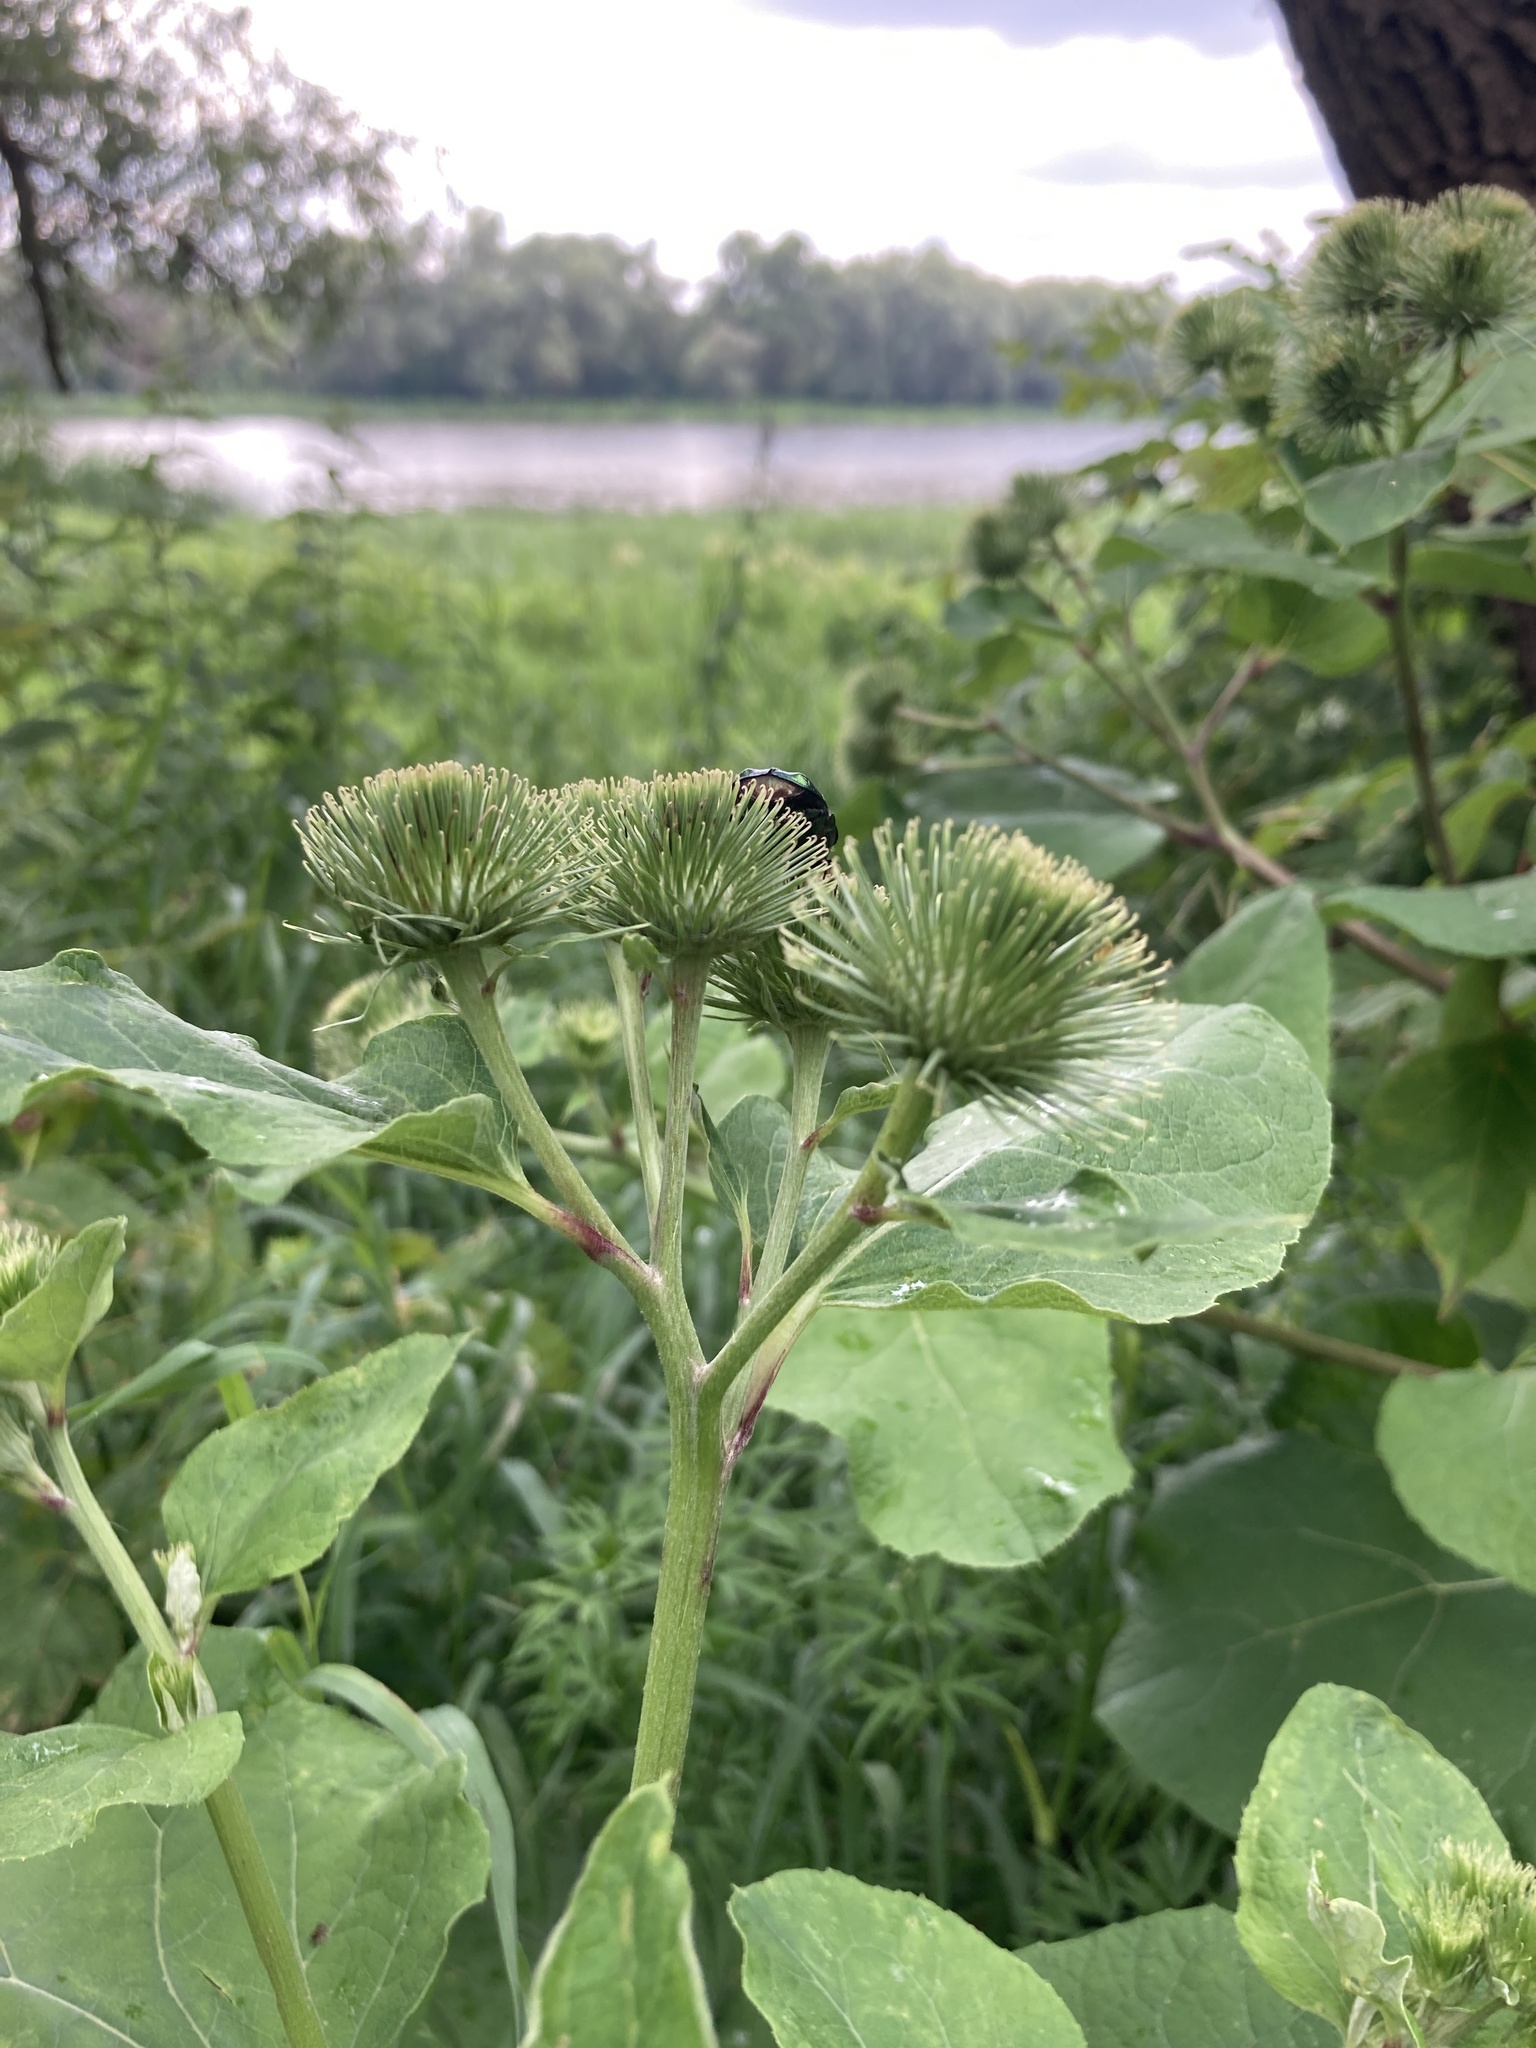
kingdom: Plantae
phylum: Tracheophyta
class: Magnoliopsida
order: Asterales
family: Asteraceae
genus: Arctium
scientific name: Arctium lappa
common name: Greater burdock
